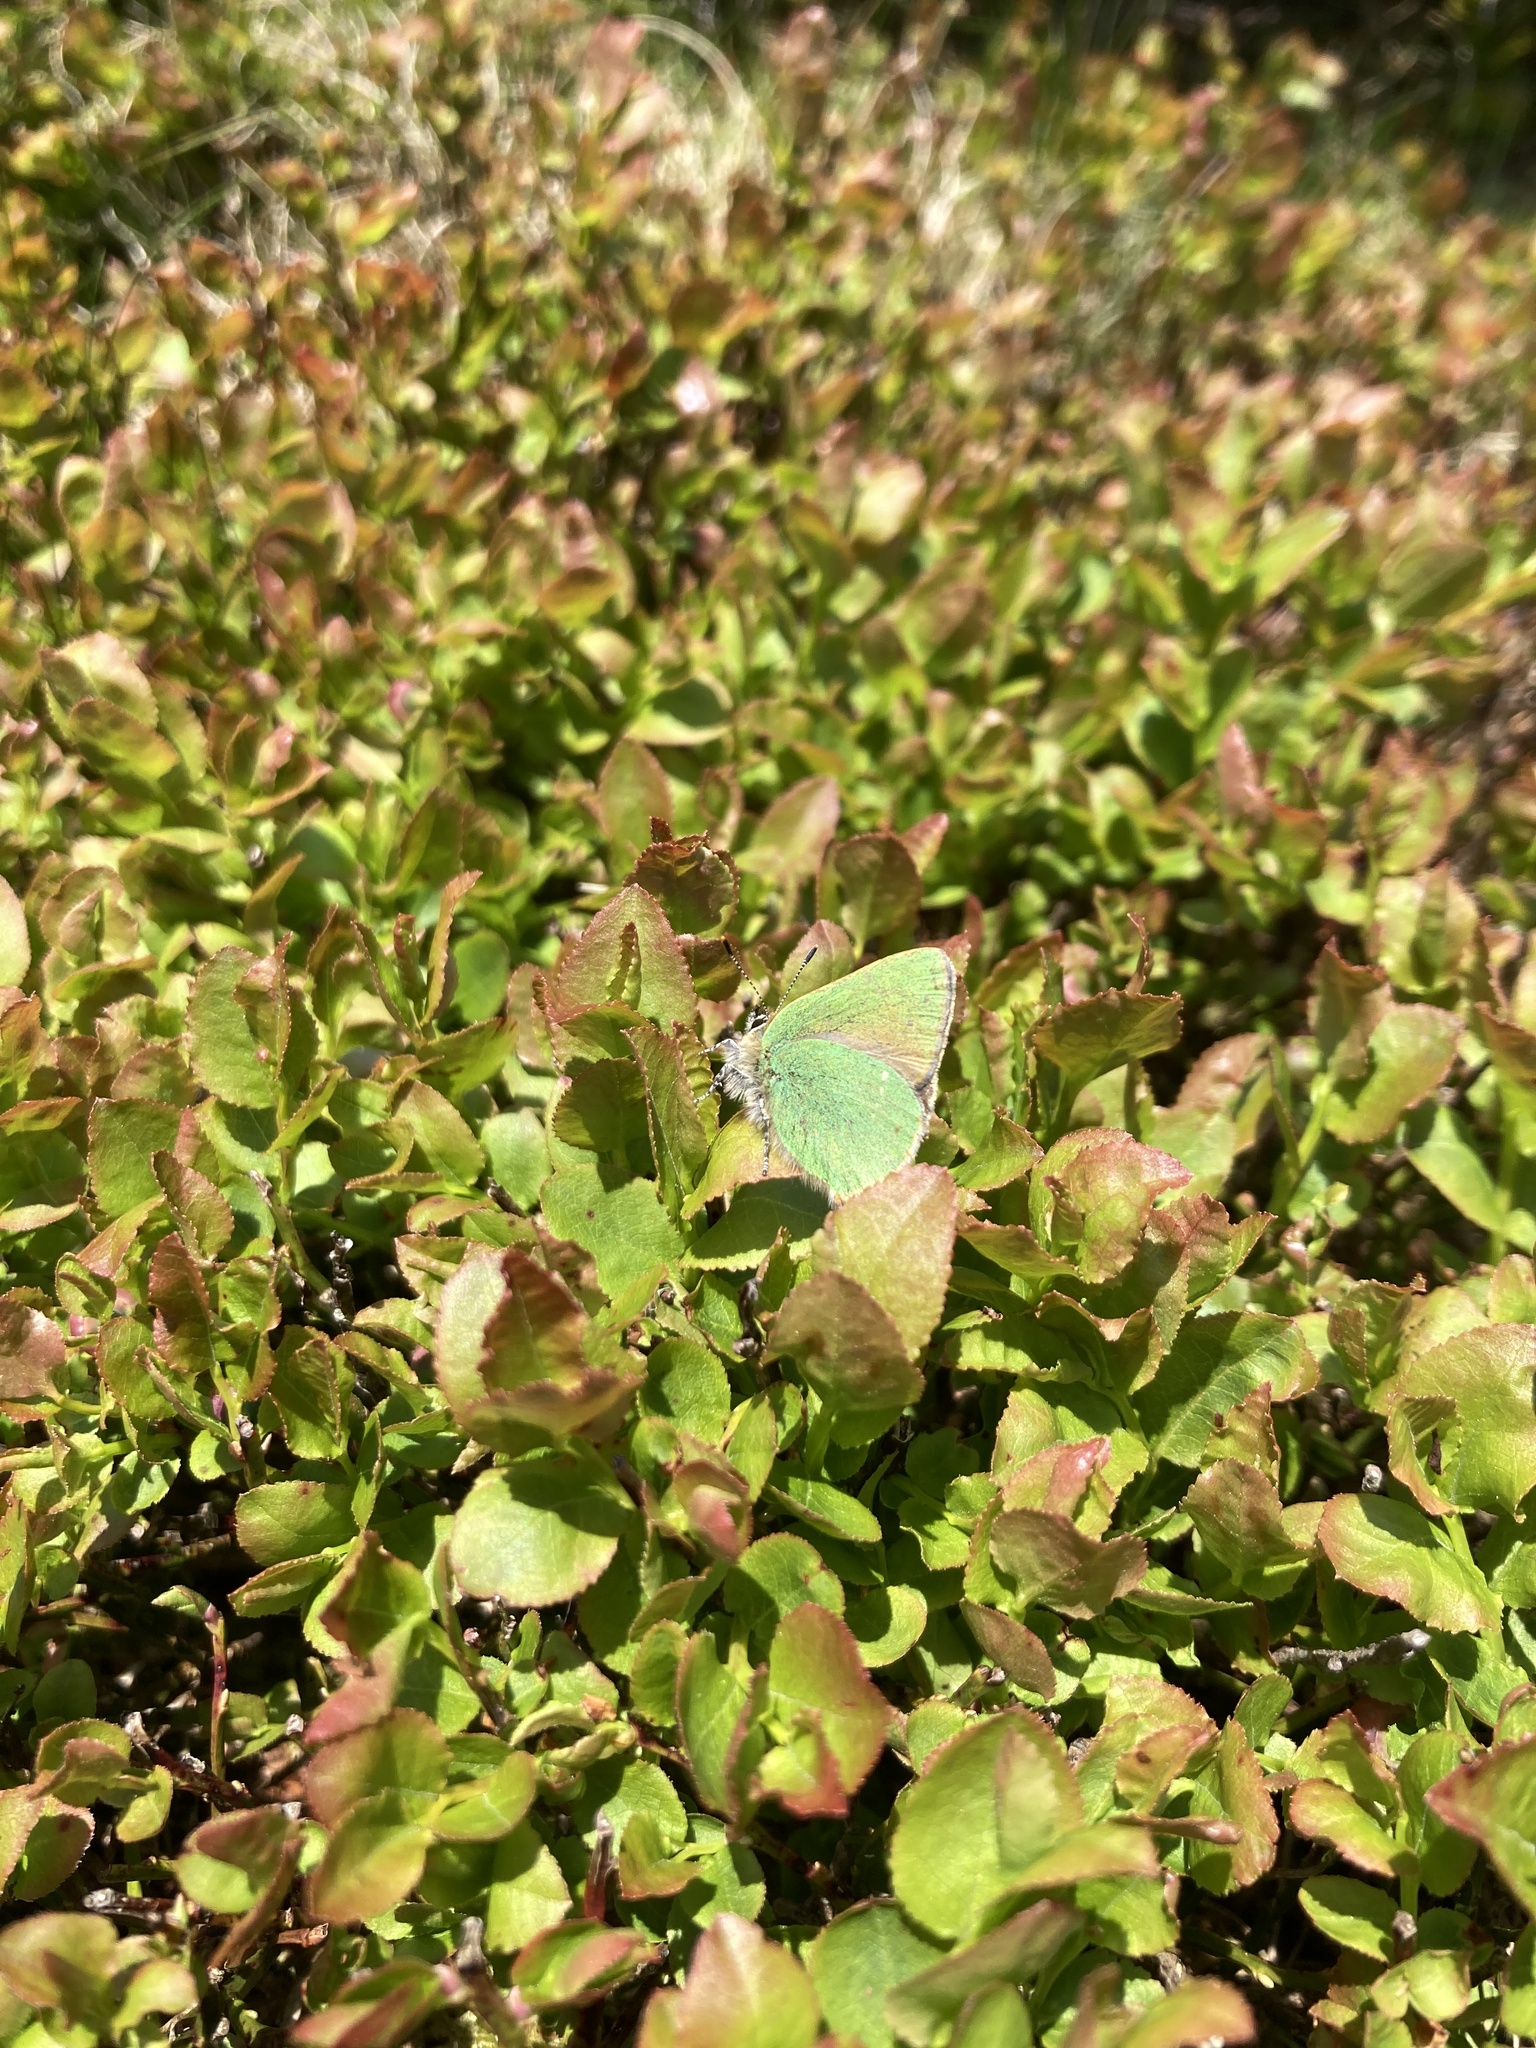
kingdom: Animalia
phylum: Arthropoda
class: Insecta
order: Lepidoptera
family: Lycaenidae
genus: Callophrys
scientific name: Callophrys rubi
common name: Green hairstreak
